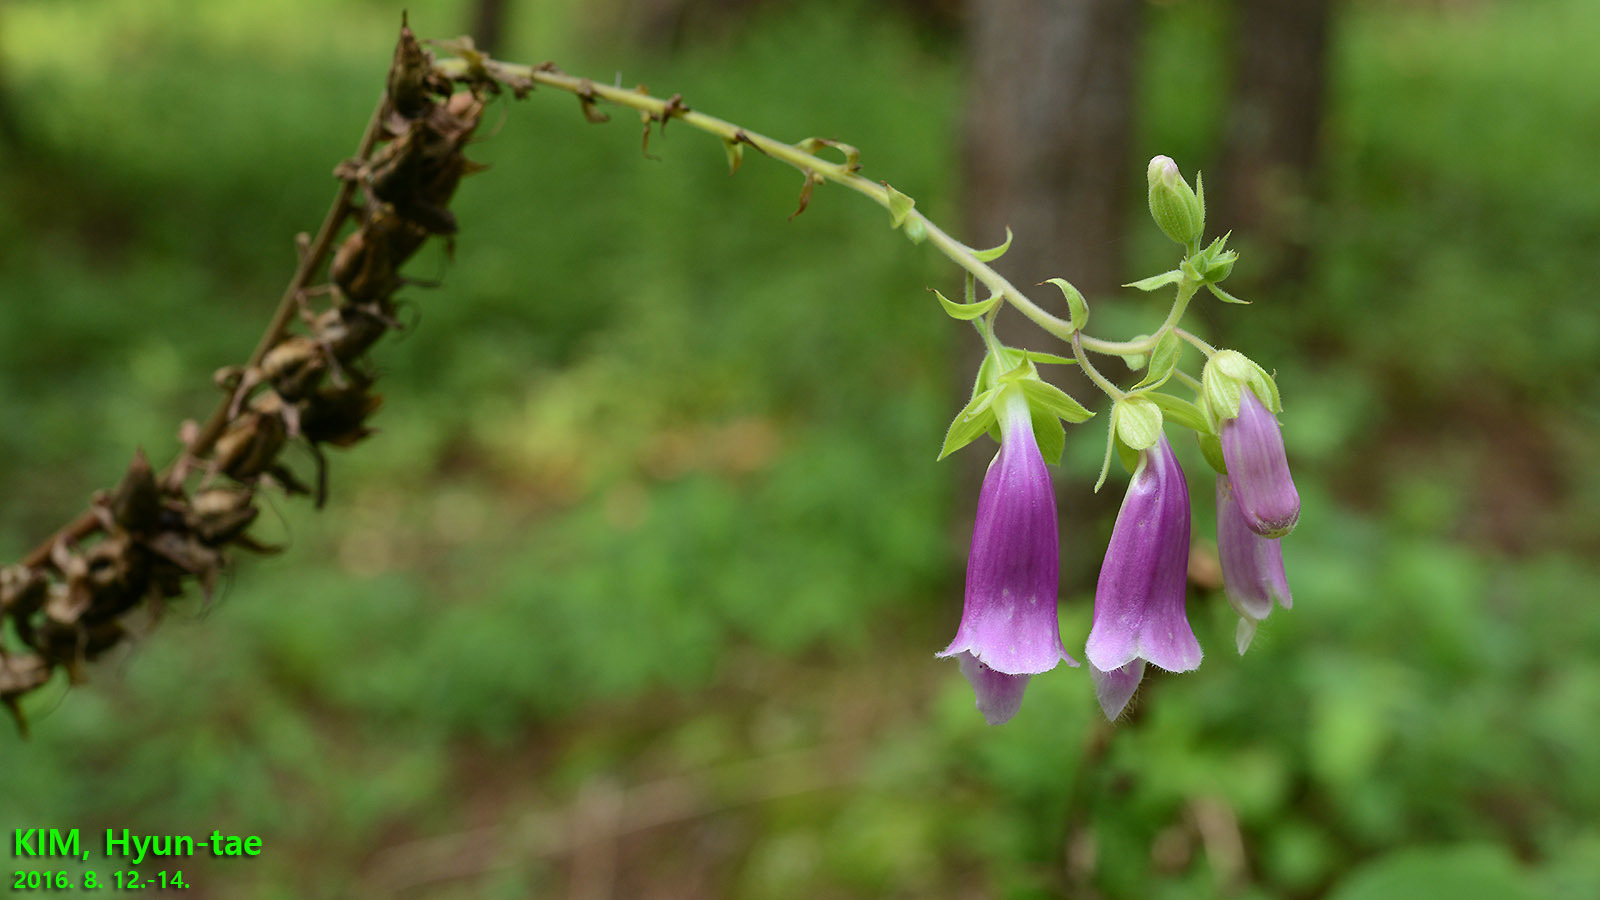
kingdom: Plantae
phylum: Tracheophyta
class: Magnoliopsida
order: Lamiales
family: Plantaginaceae
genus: Digitalis
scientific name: Digitalis purpurea
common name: Foxglove
